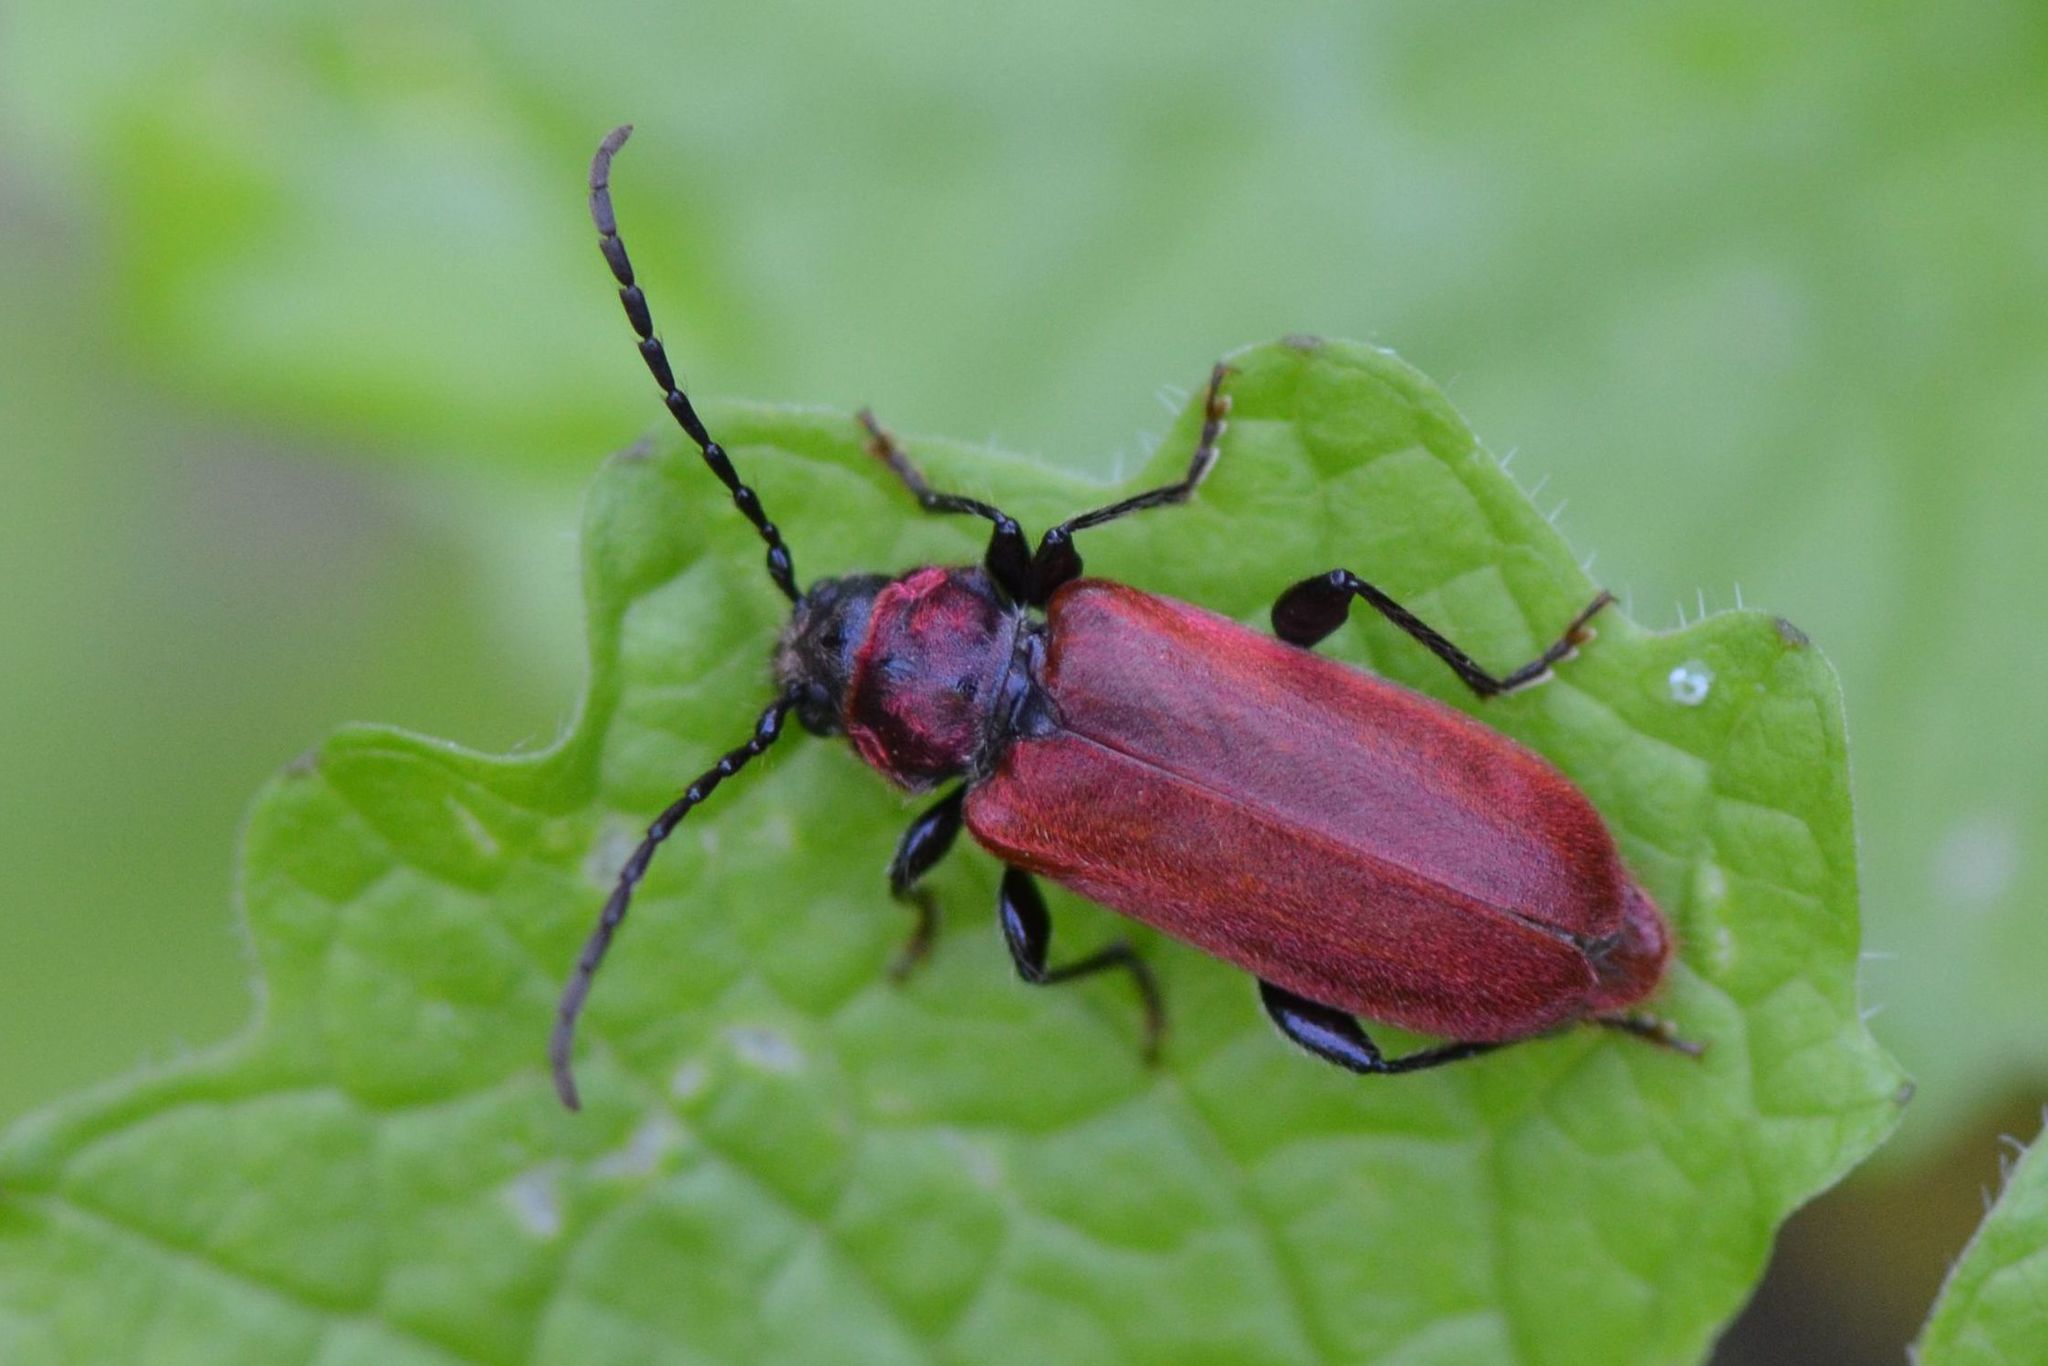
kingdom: Animalia
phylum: Arthropoda
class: Insecta
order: Coleoptera
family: Cerambycidae
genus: Pyrrhidium
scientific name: Pyrrhidium sanguineum
